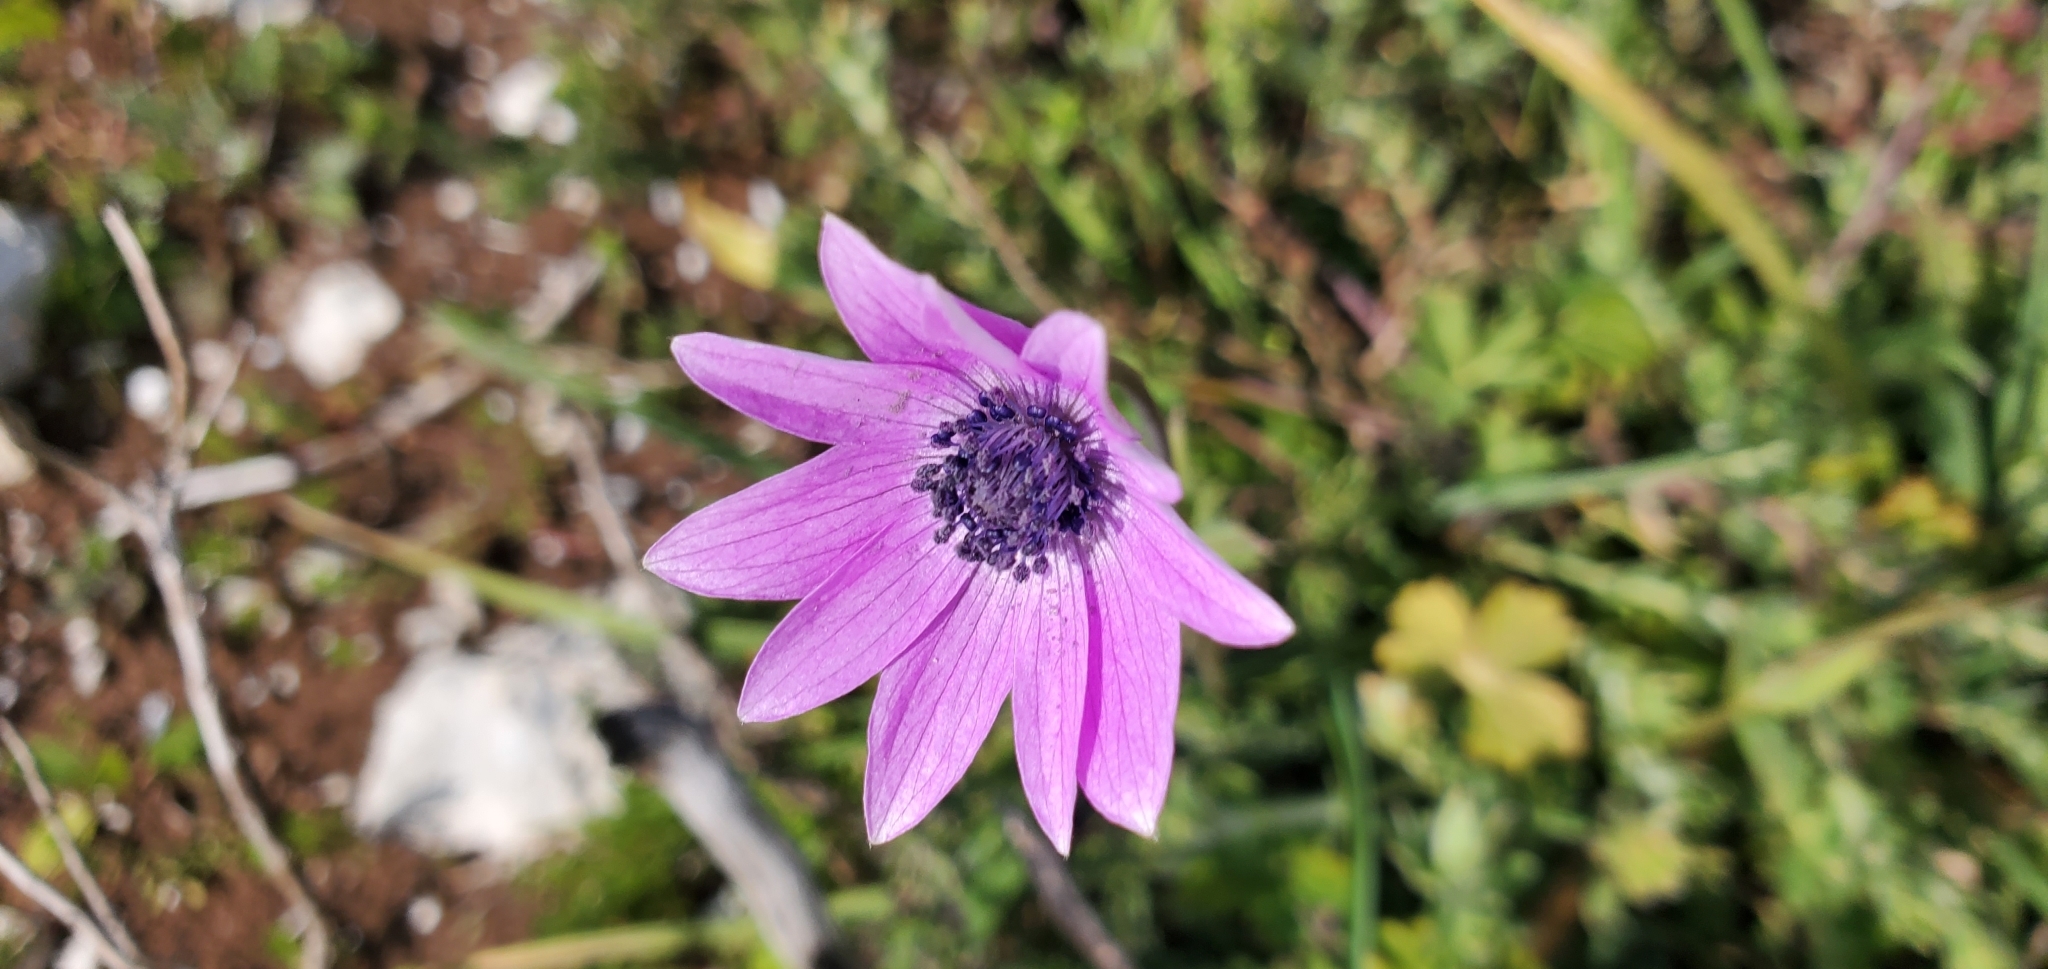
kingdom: Plantae
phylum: Tracheophyta
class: Magnoliopsida
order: Ranunculales
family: Ranunculaceae
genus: Anemone
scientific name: Anemone hortensis
